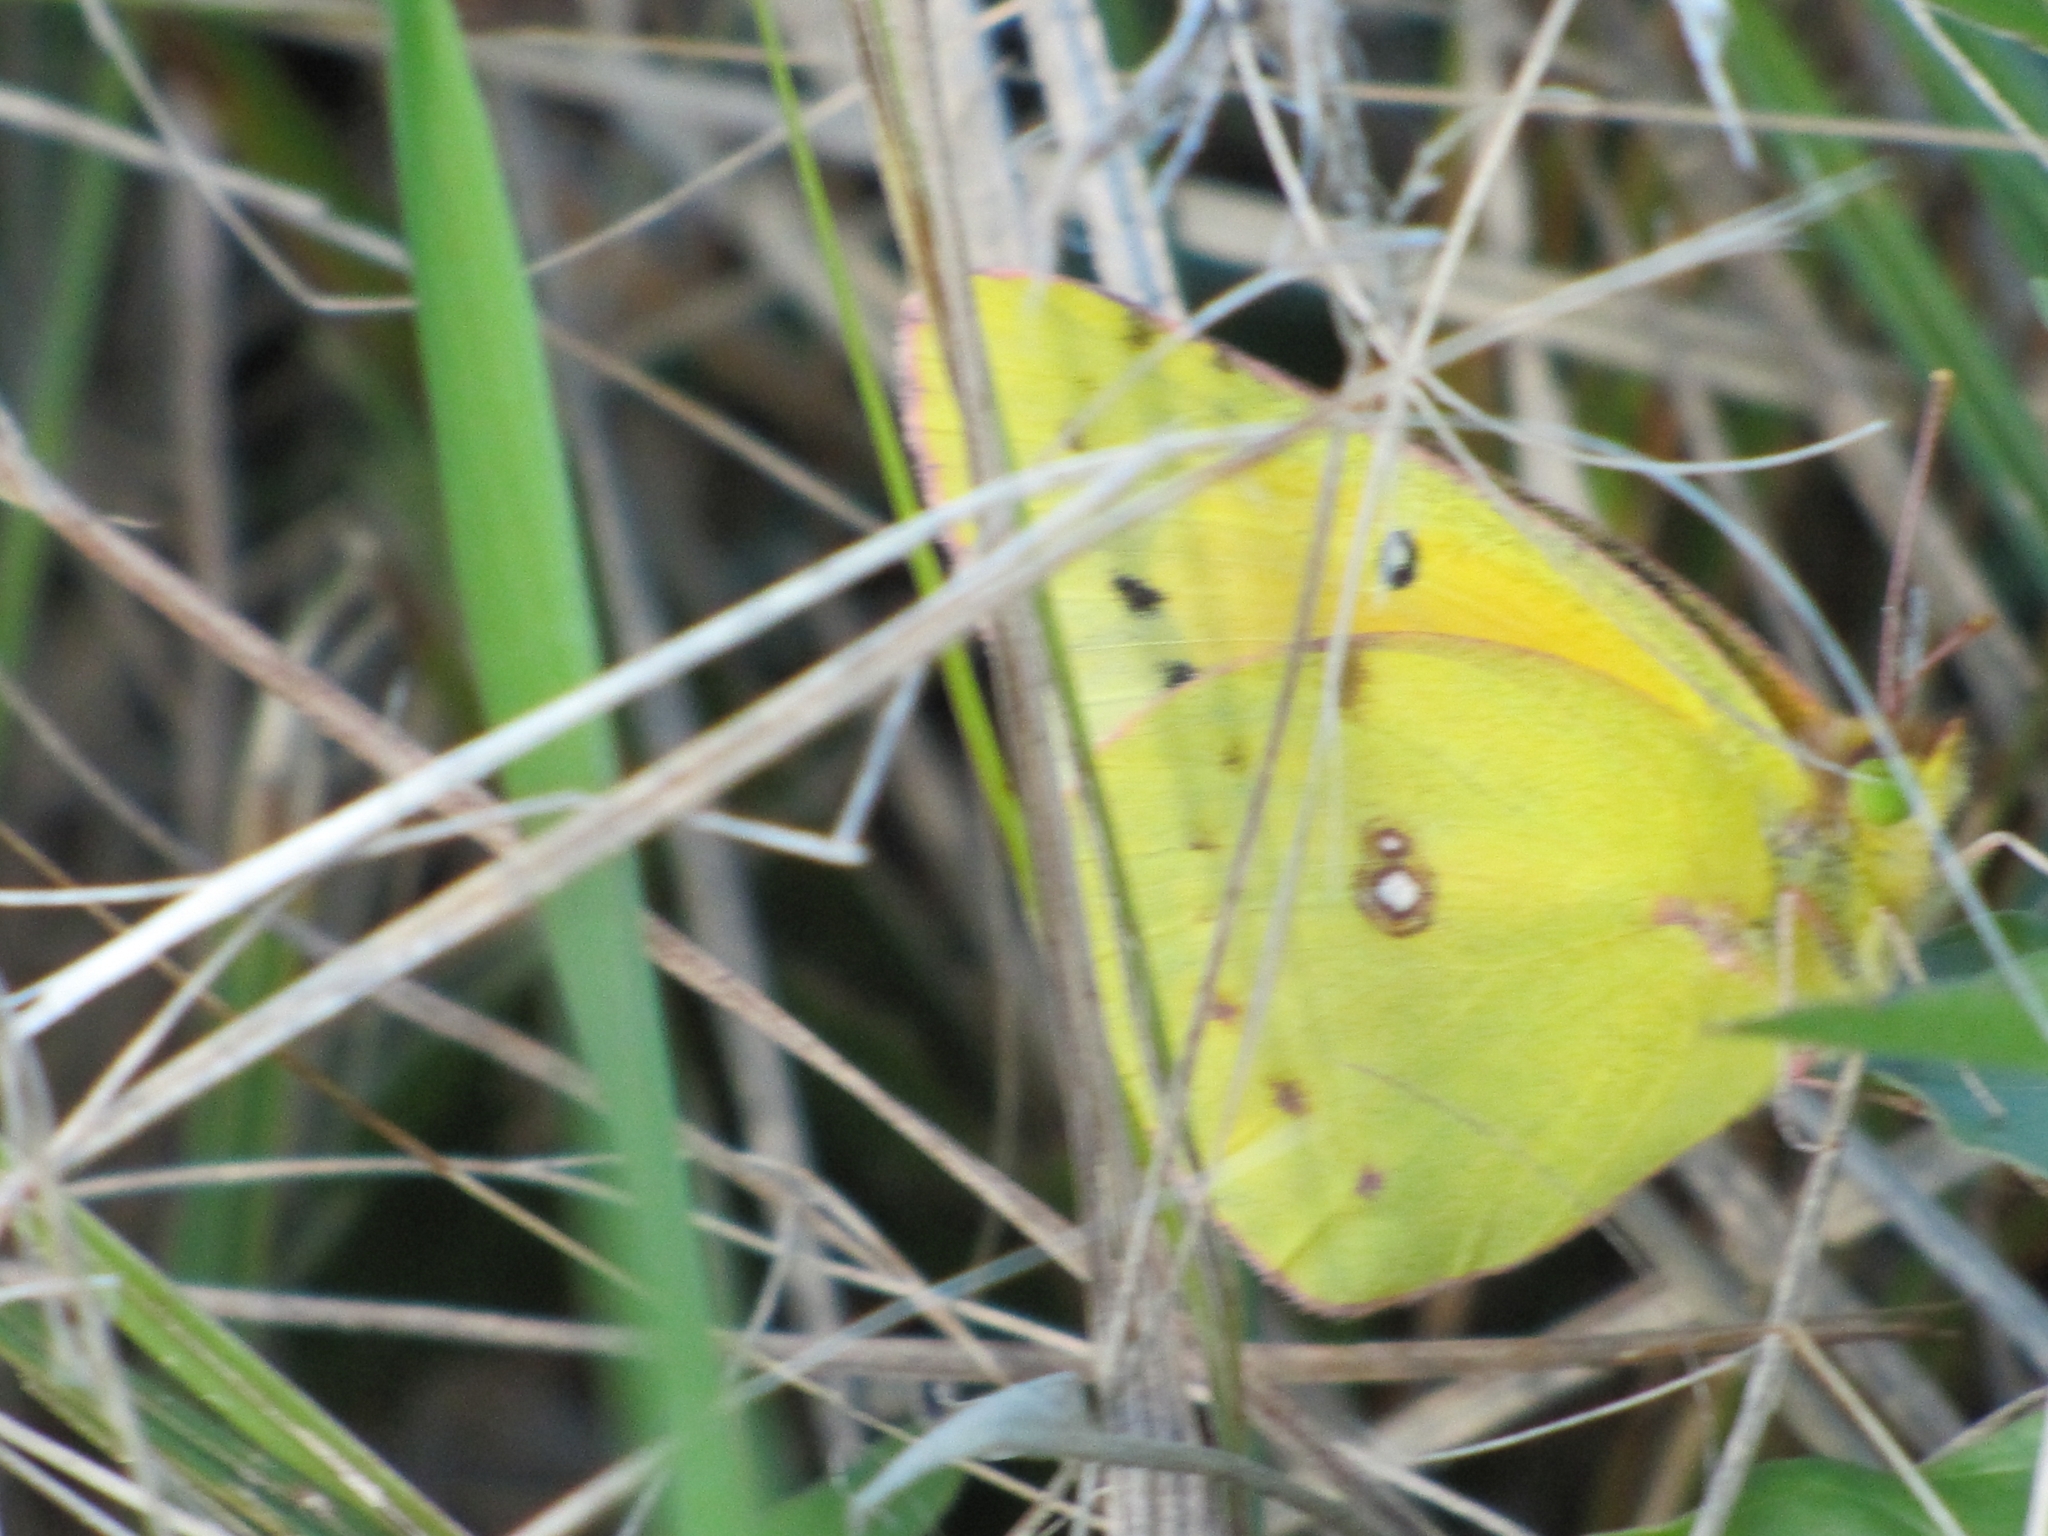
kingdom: Animalia
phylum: Arthropoda
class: Insecta
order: Lepidoptera
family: Pieridae
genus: Colias
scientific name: Colias eurytheme
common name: Alfalfa butterfly
